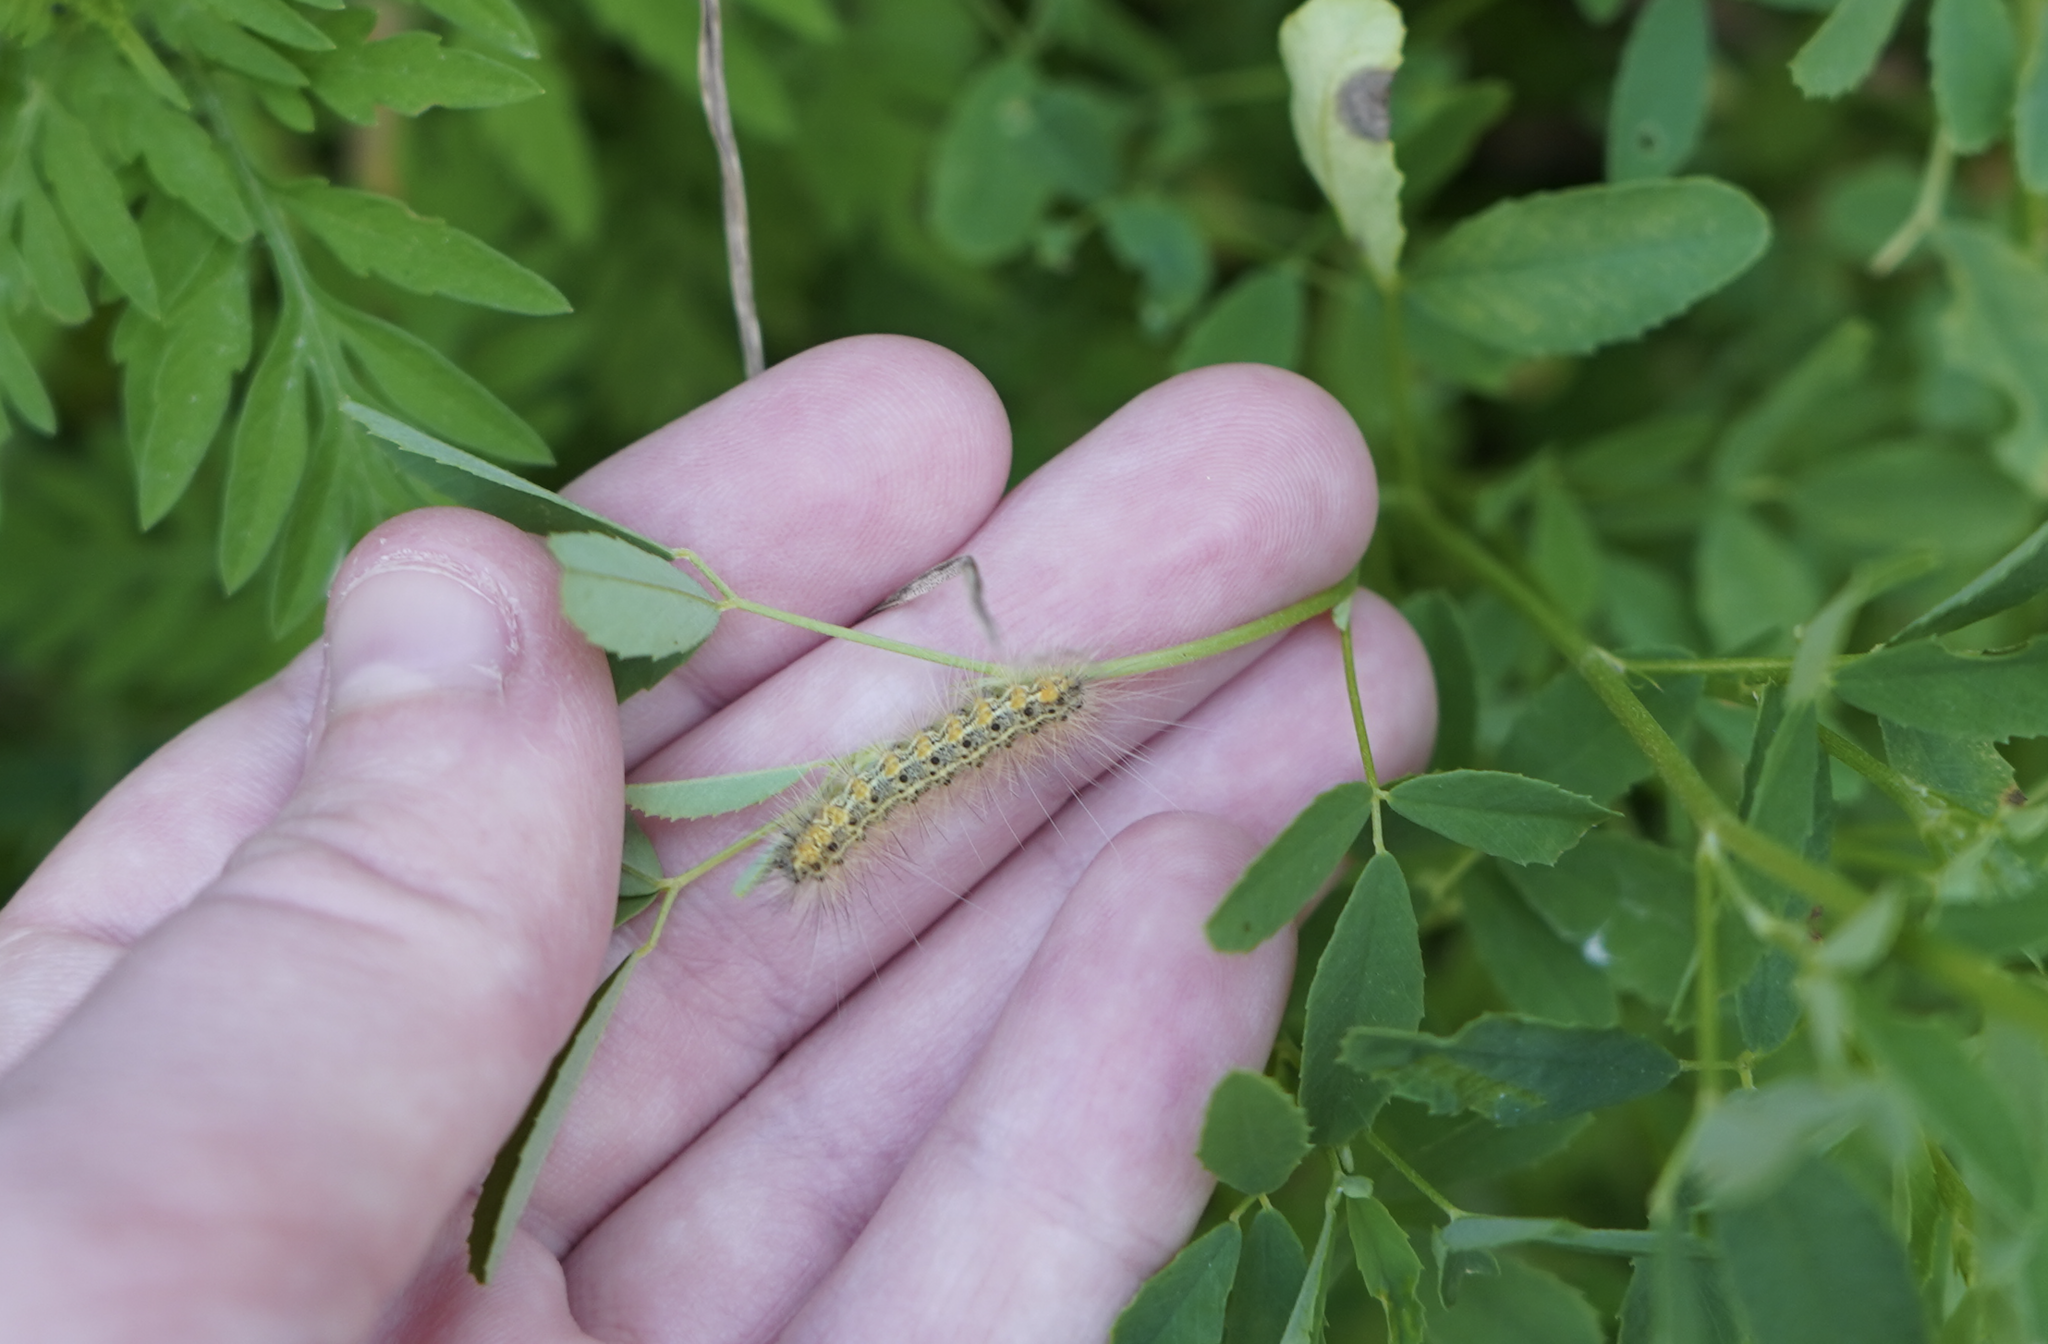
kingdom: Animalia
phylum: Arthropoda
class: Insecta
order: Lepidoptera
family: Erebidae
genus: Hyphantria
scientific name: Hyphantria cunea
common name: American white moth
